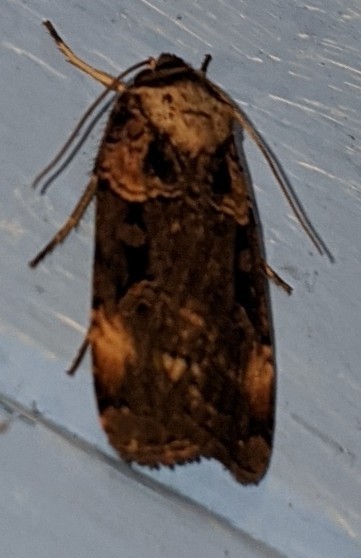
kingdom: Animalia
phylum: Arthropoda
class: Insecta
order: Lepidoptera
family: Noctuidae
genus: Pseudohermonassa
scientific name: Pseudohermonassa bicarnea
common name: Pink spotted dart
